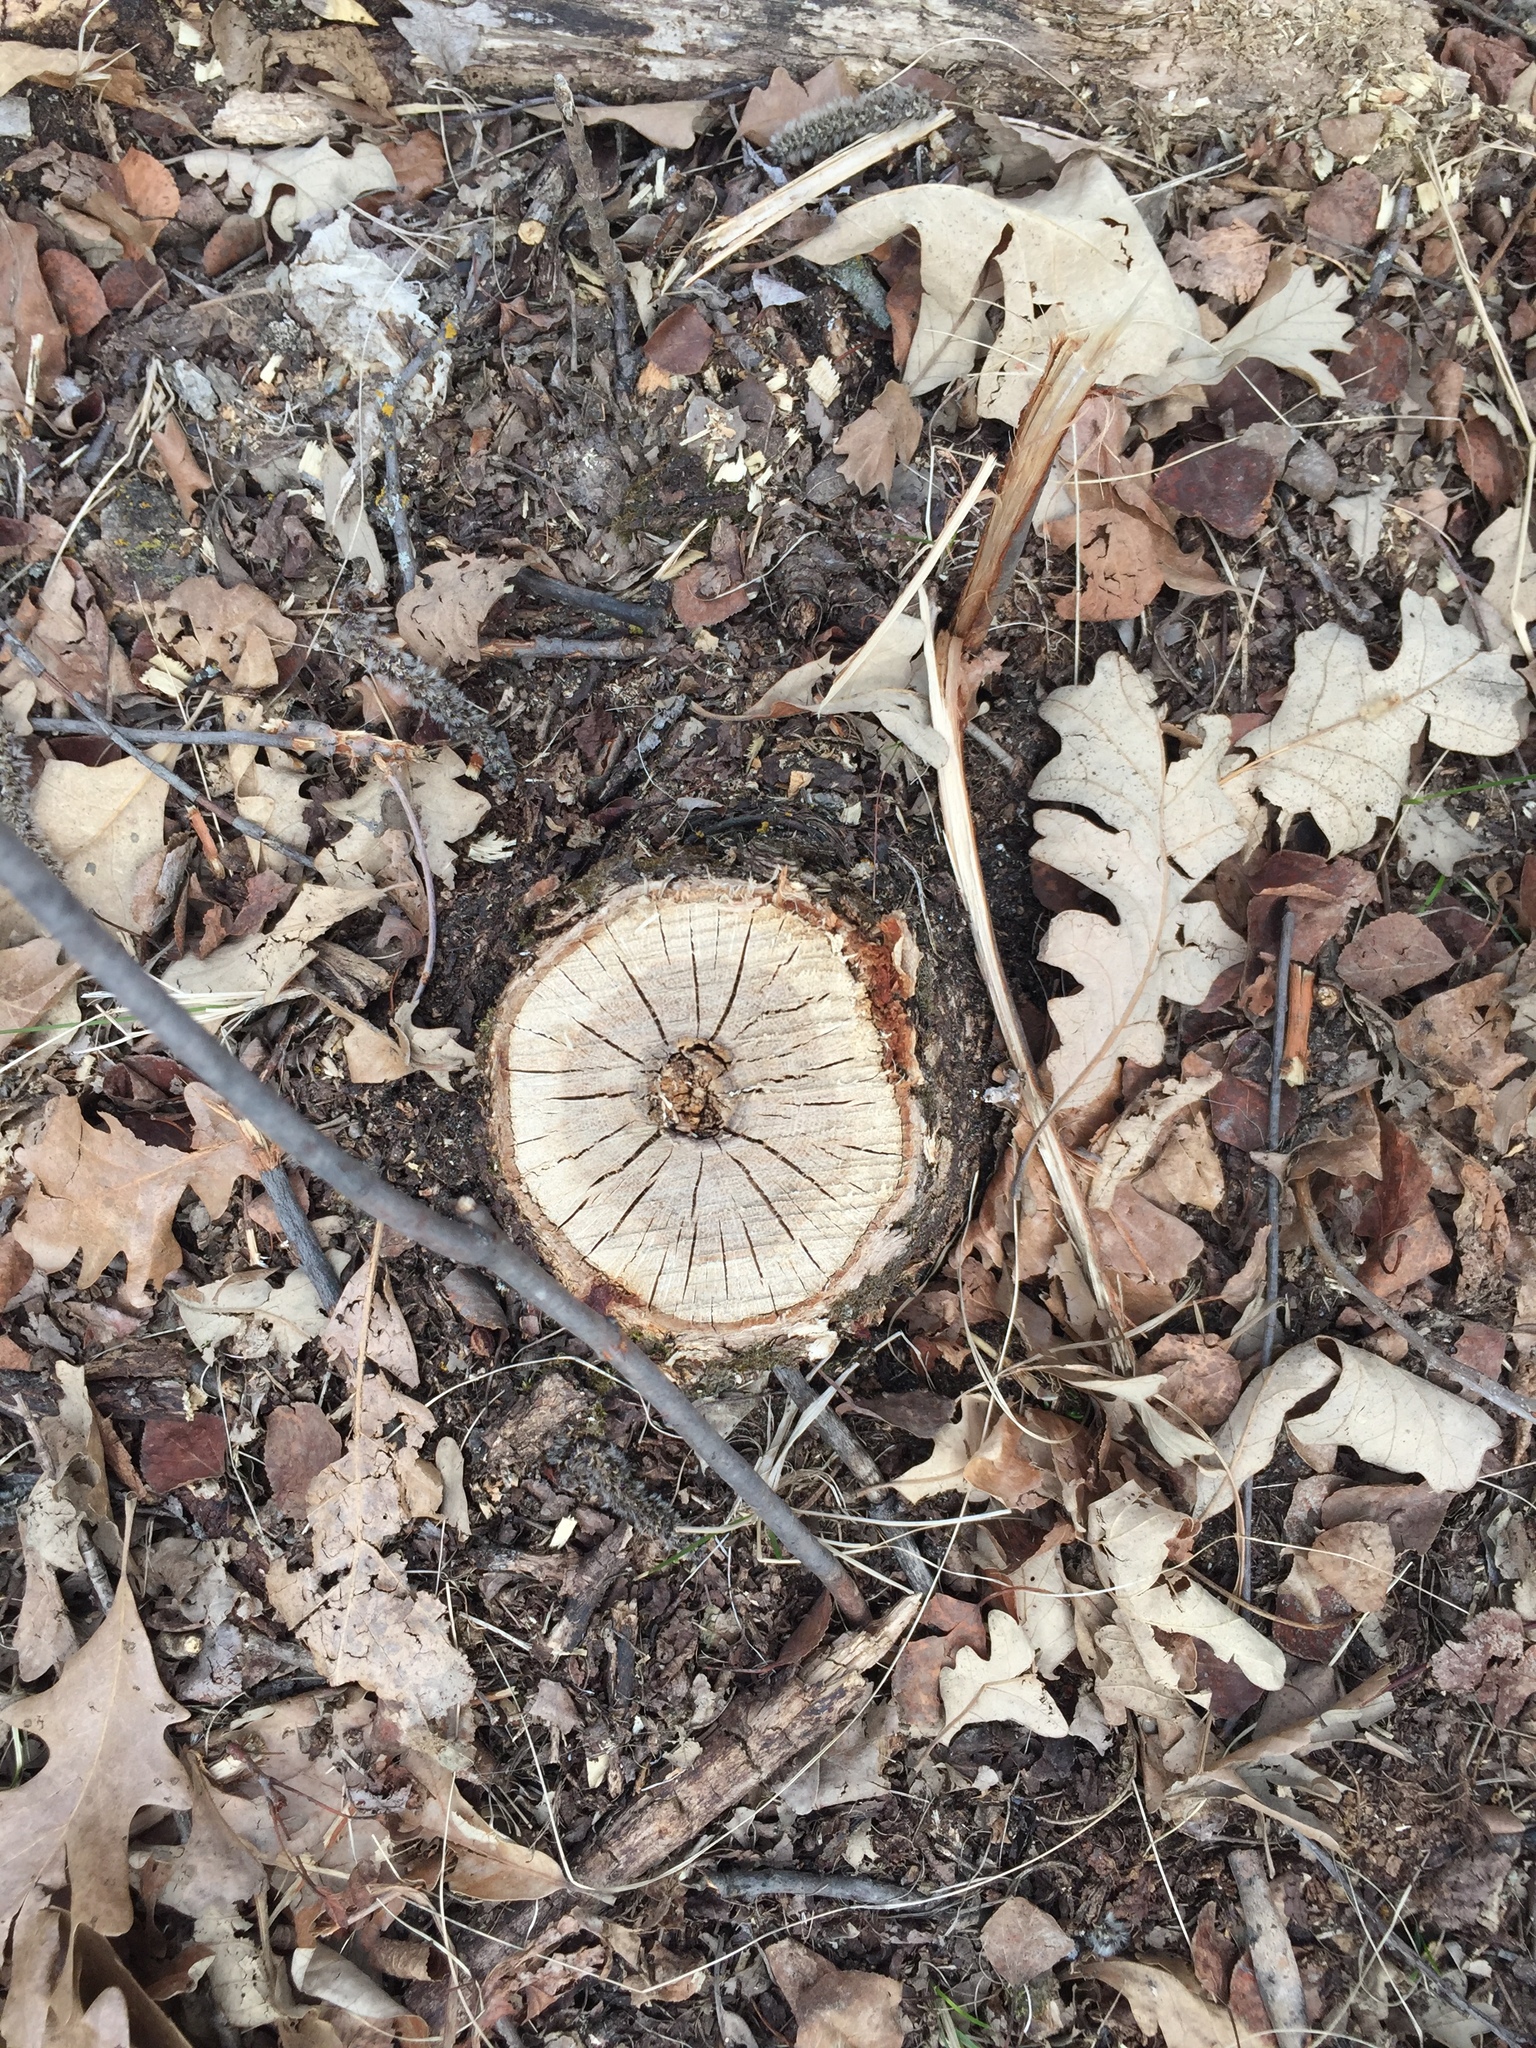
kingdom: Plantae
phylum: Tracheophyta
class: Magnoliopsida
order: Fagales
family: Fagaceae
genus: Quercus
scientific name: Quercus macrocarpa
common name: Bur oak
